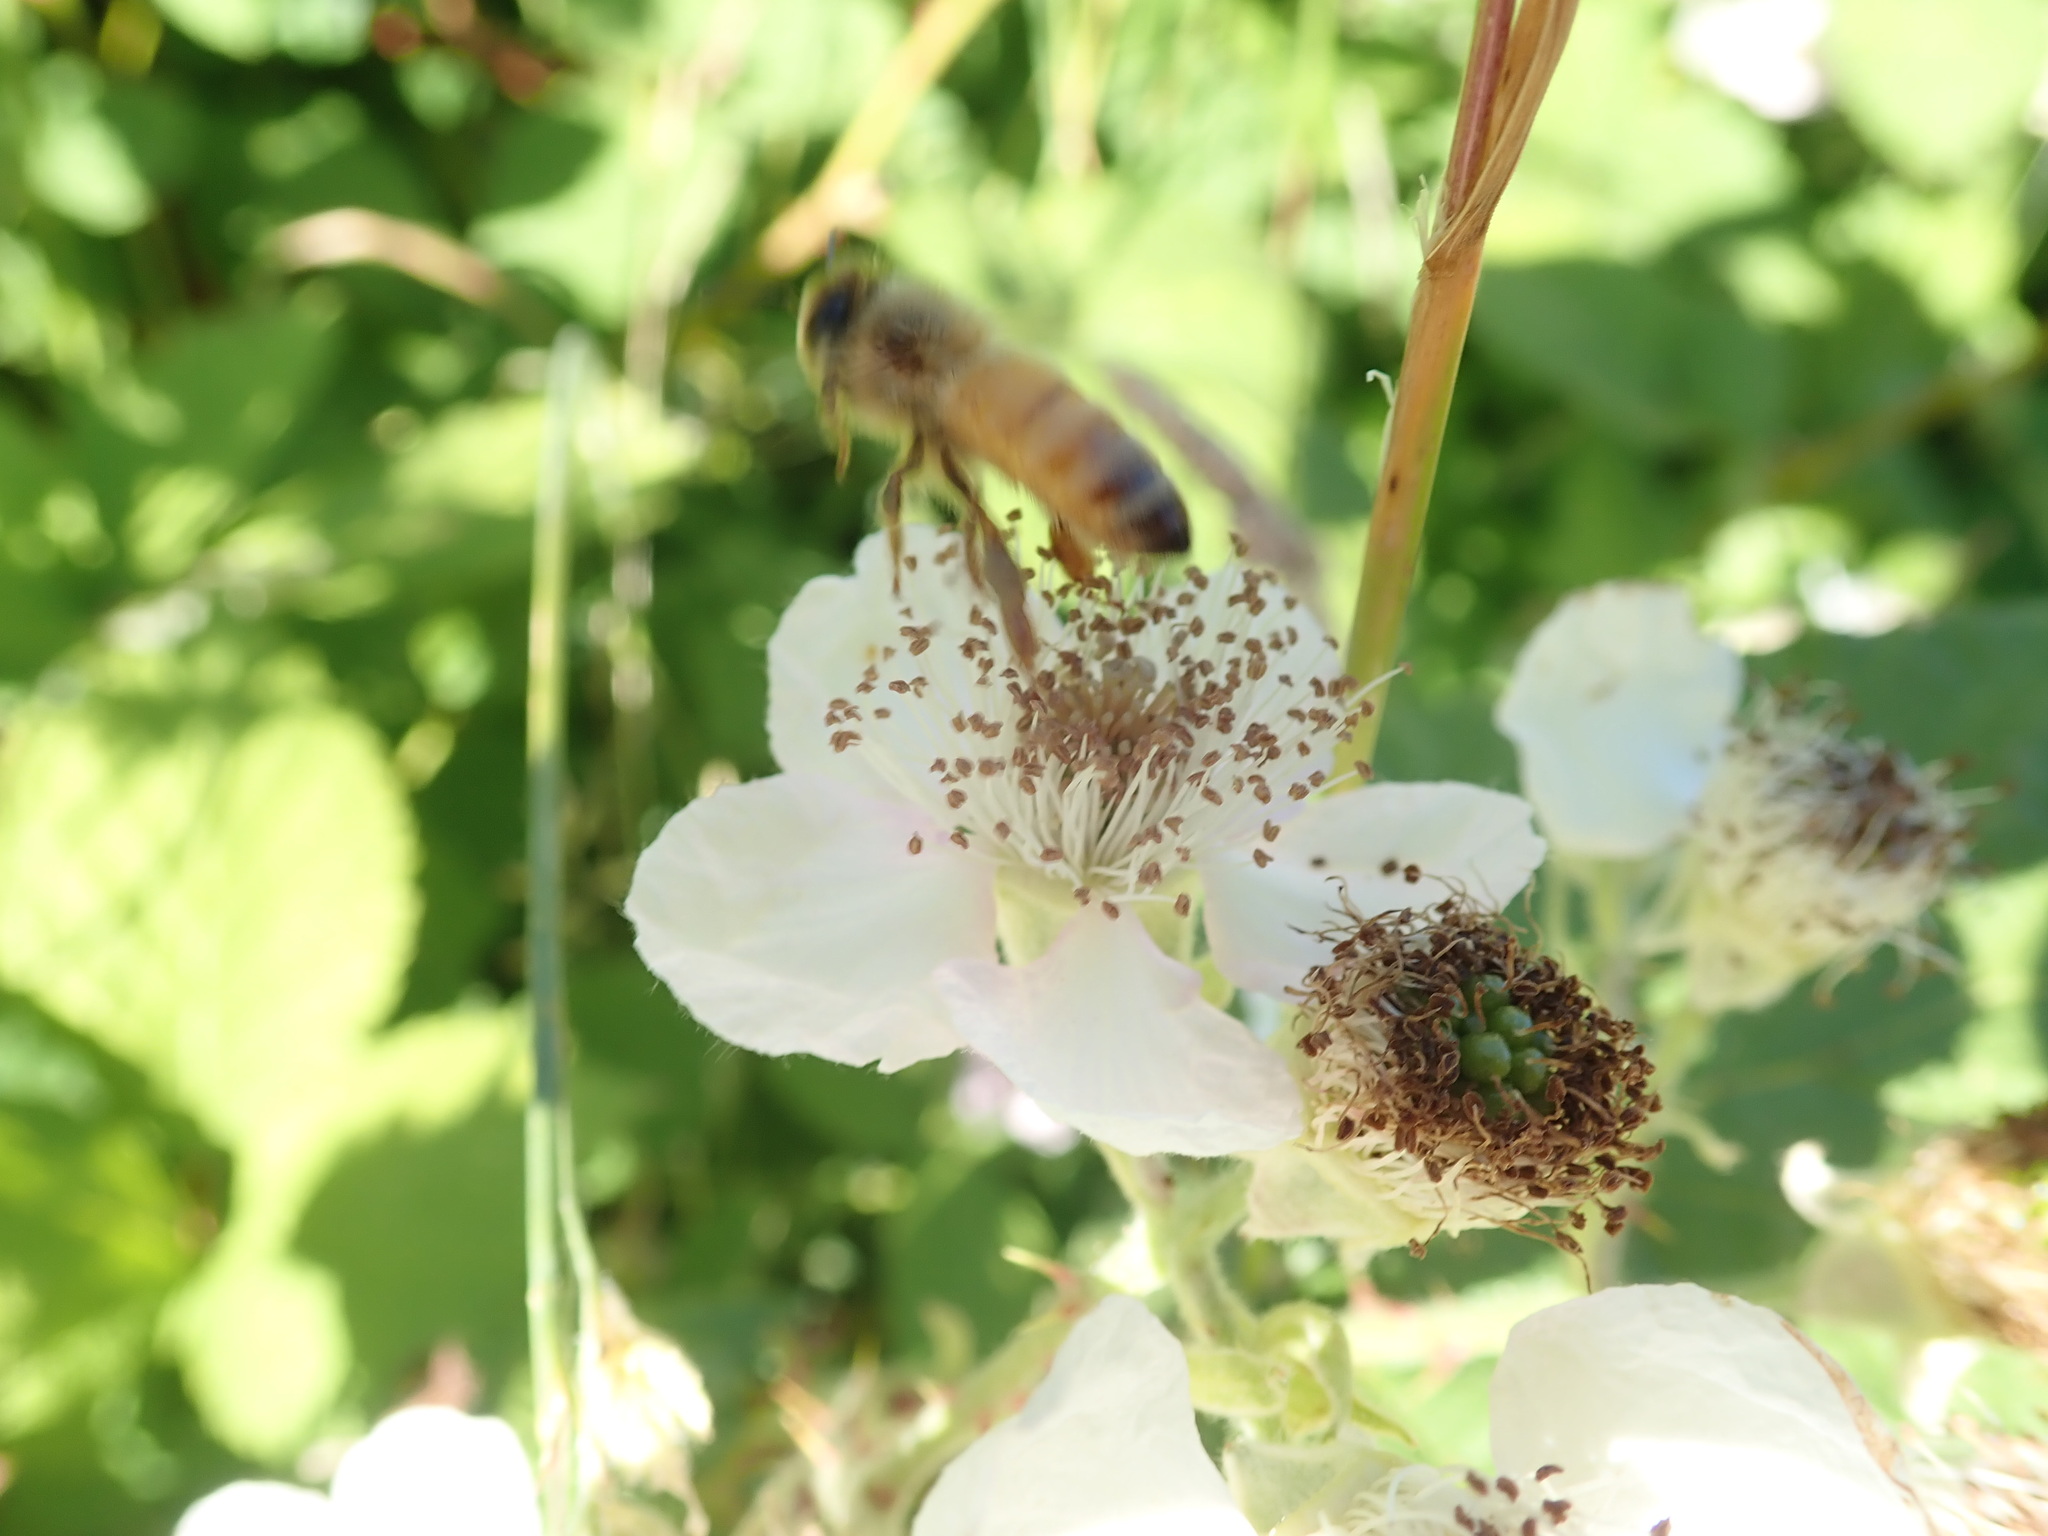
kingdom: Animalia
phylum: Arthropoda
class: Insecta
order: Hymenoptera
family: Apidae
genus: Apis
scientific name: Apis mellifera
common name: Honey bee
